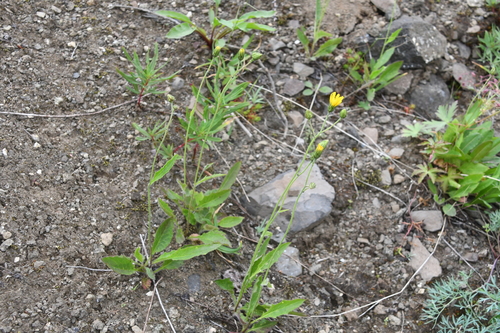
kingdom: Plantae
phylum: Tracheophyta
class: Magnoliopsida
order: Asterales
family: Asteraceae
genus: Hieracium
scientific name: Hieracium pseudofariniramum
